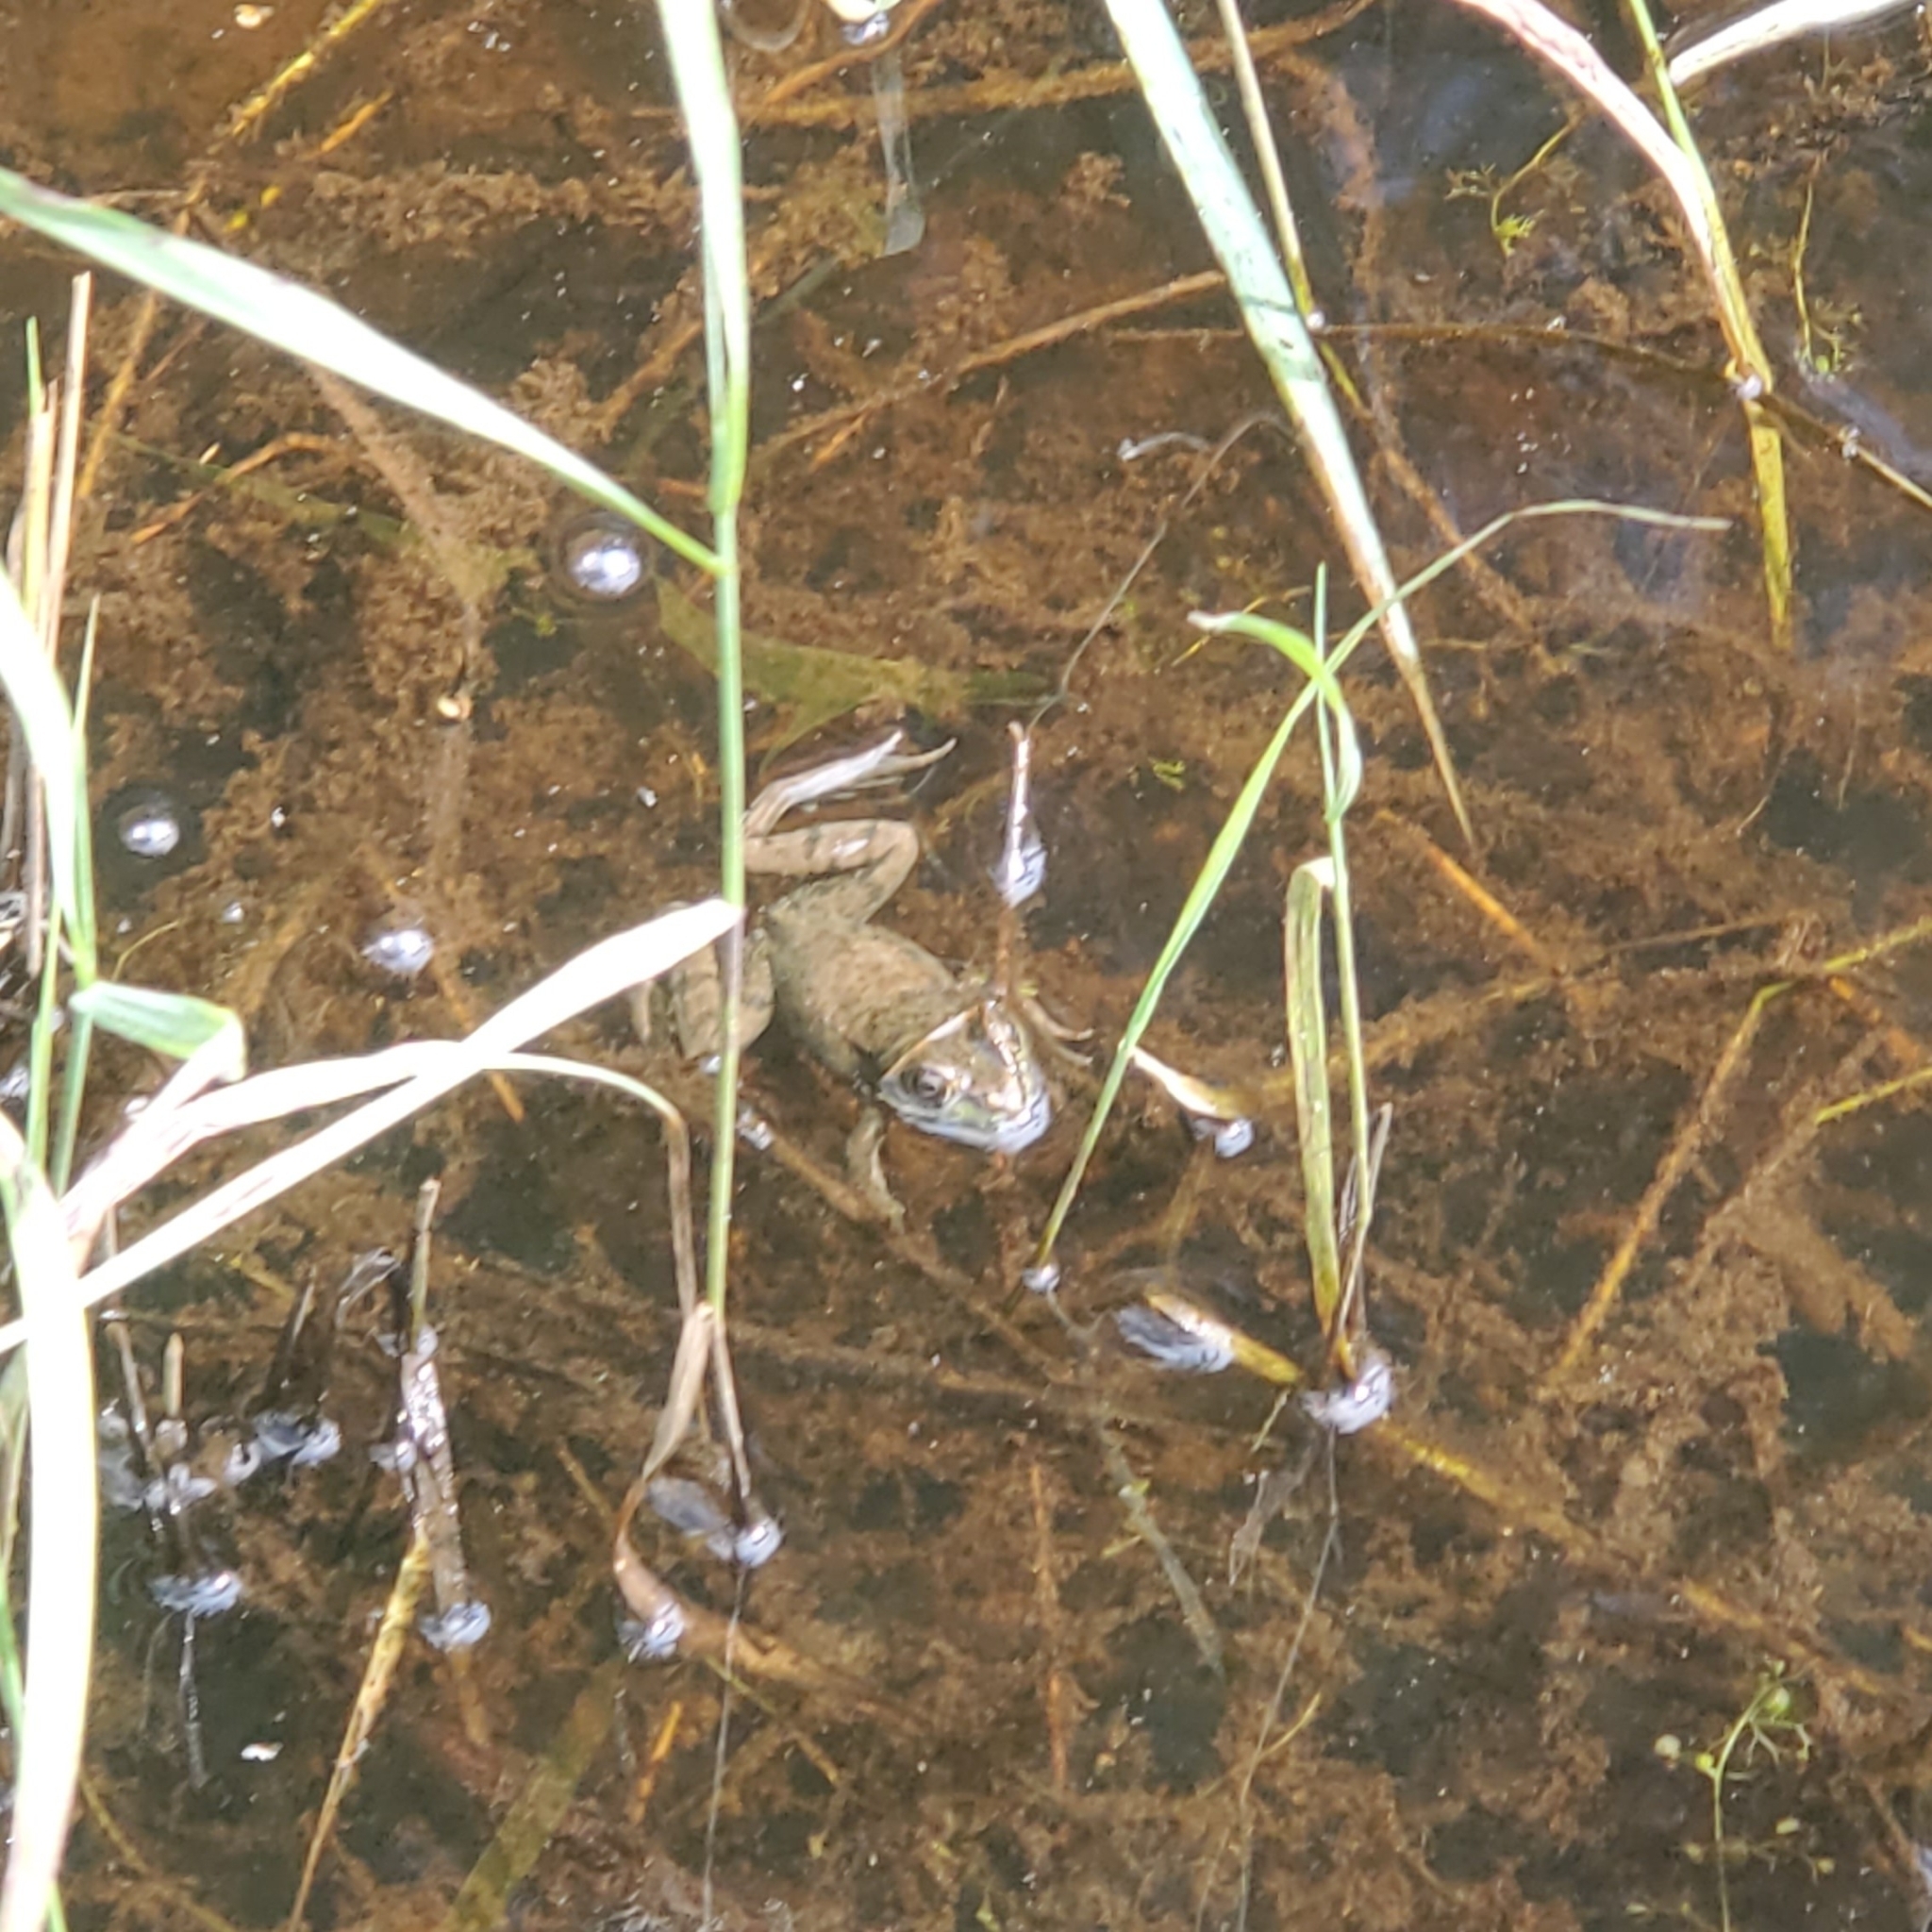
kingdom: Animalia
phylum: Chordata
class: Amphibia
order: Anura
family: Ranidae
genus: Lithobates
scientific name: Lithobates clamitans
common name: Green frog
